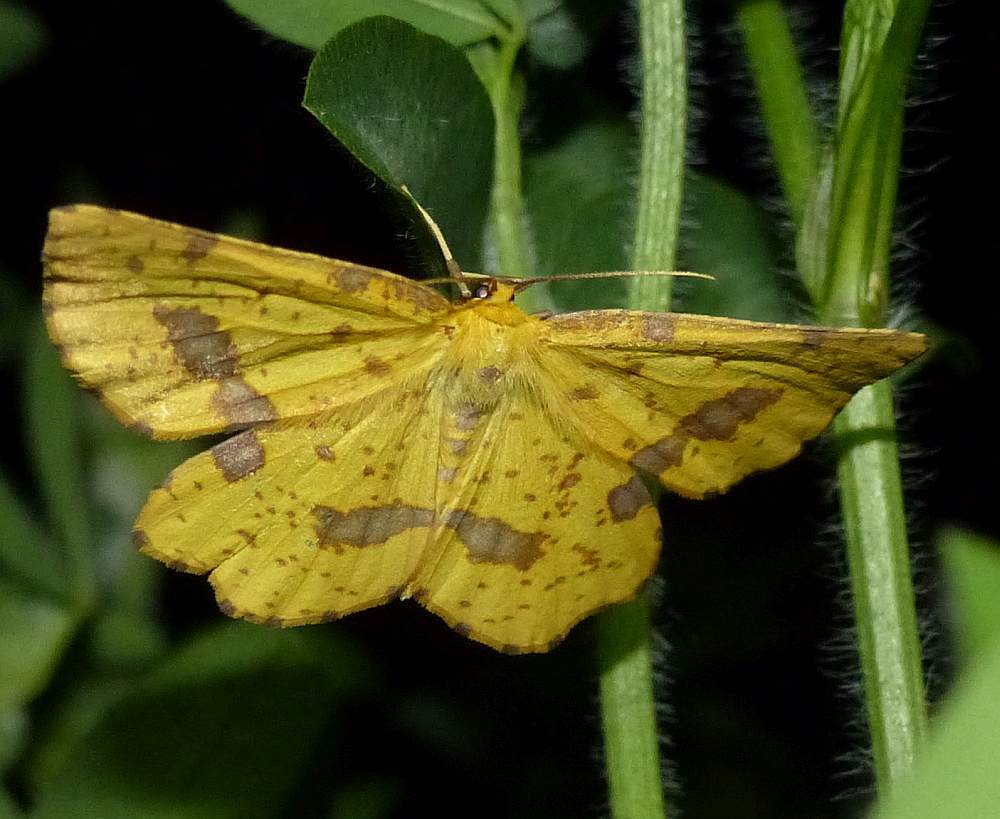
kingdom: Animalia
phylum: Arthropoda
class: Insecta
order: Lepidoptera
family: Geometridae
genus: Xanthotype
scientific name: Xanthotype
